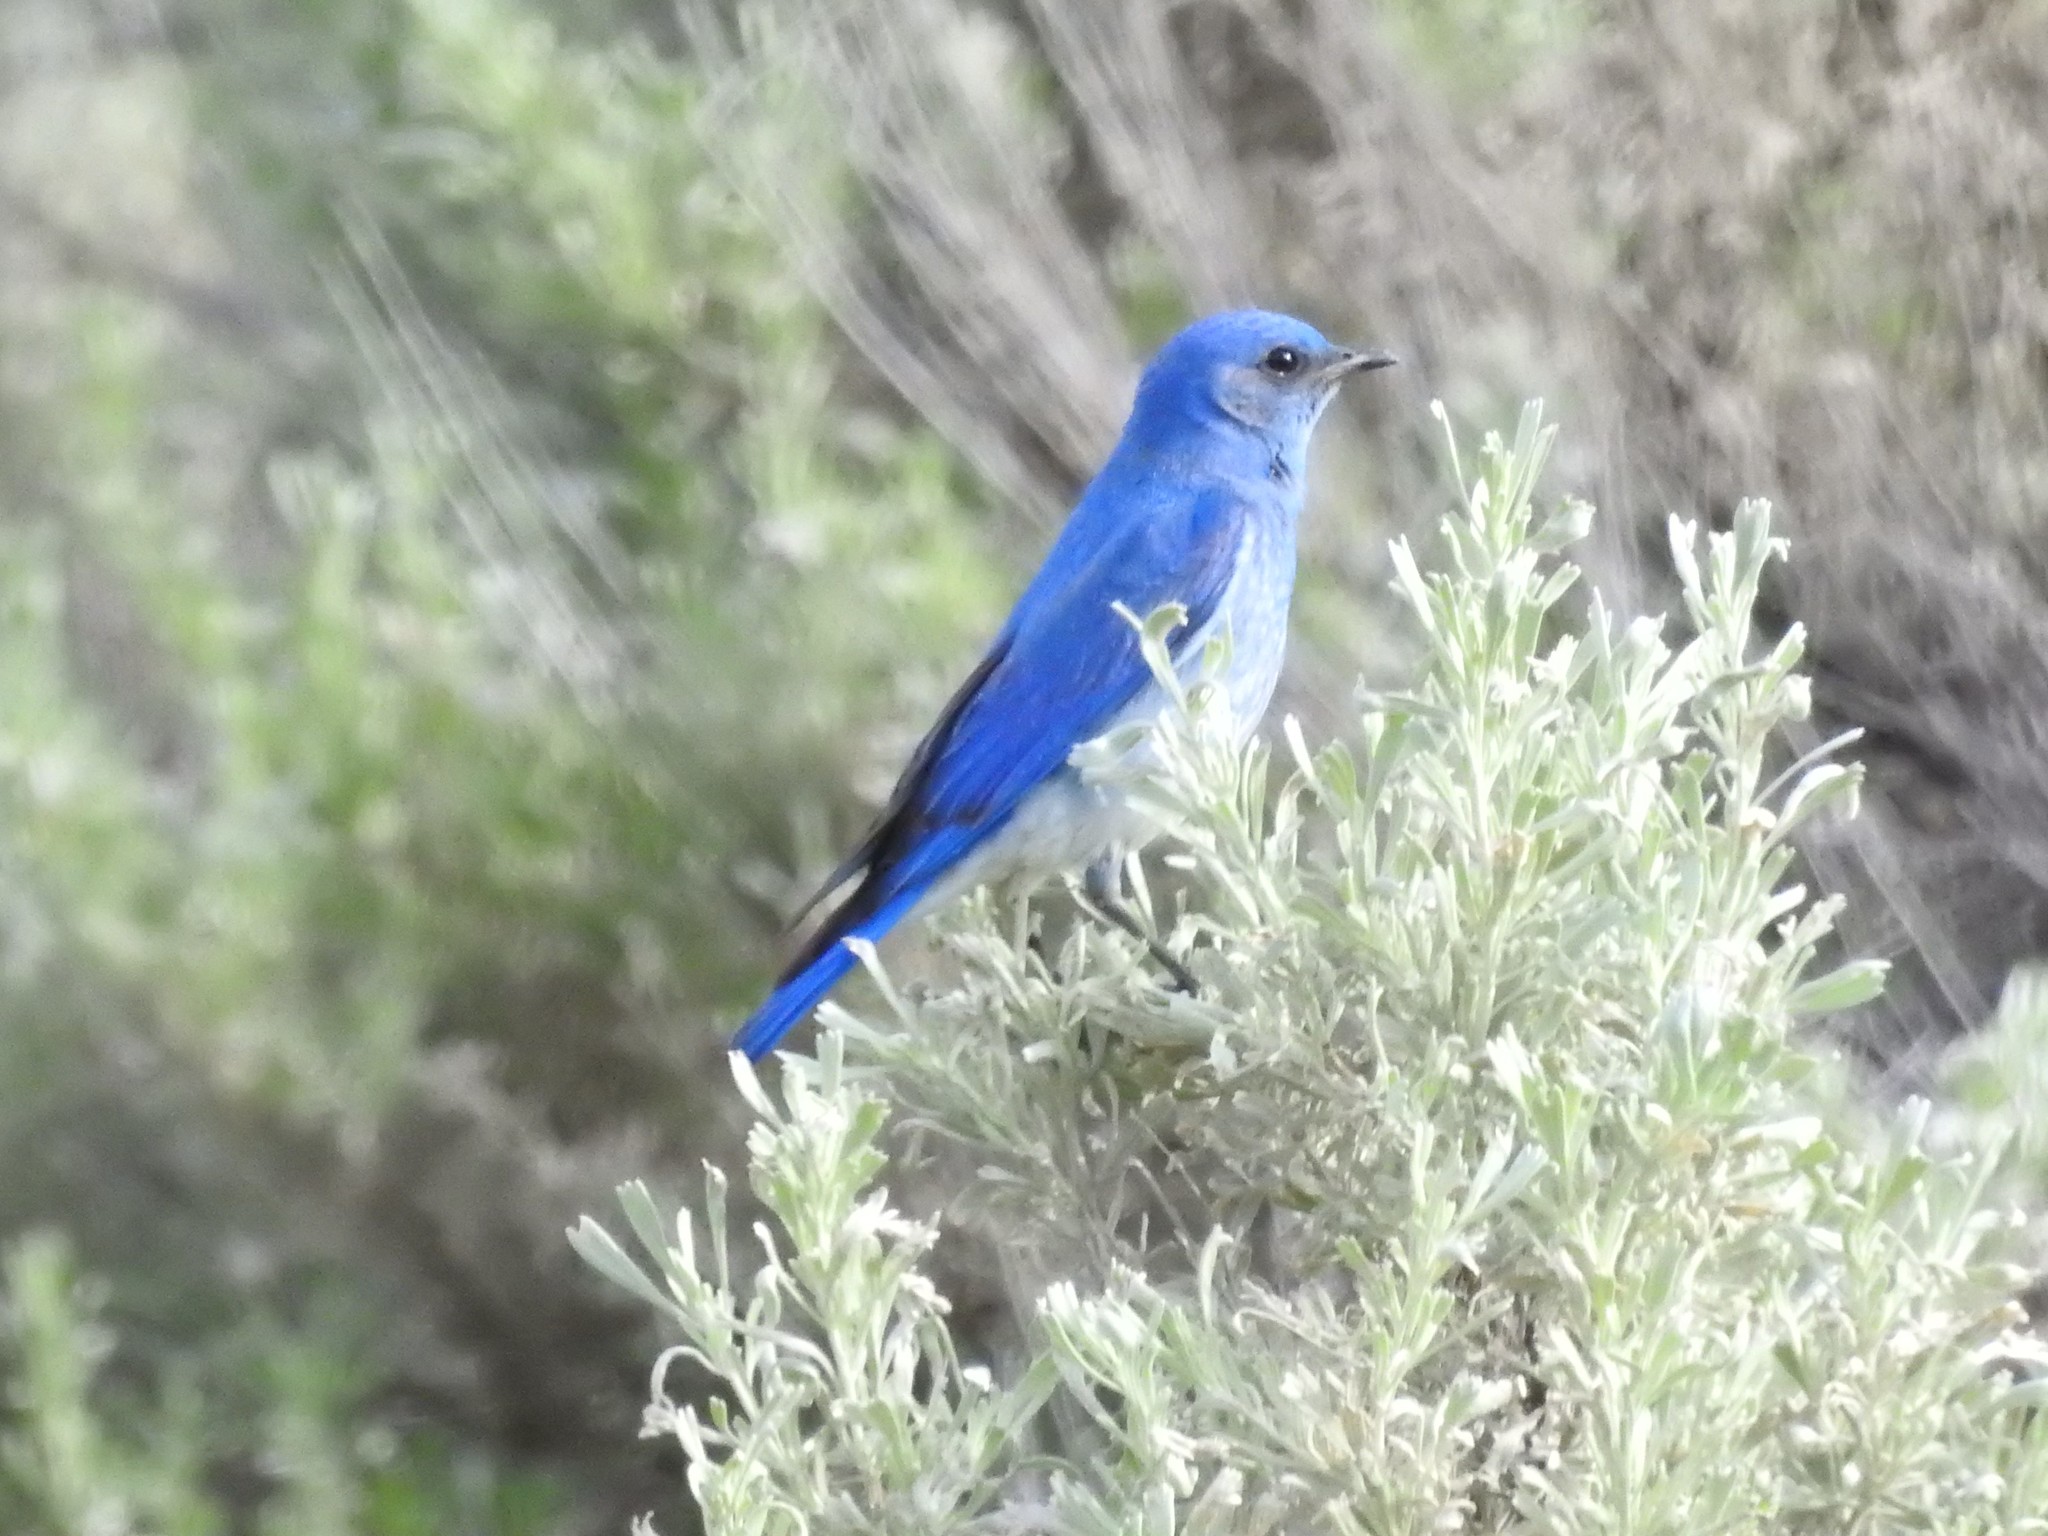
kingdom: Animalia
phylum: Chordata
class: Aves
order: Passeriformes
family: Turdidae
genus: Sialia
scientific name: Sialia currucoides
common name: Mountain bluebird
